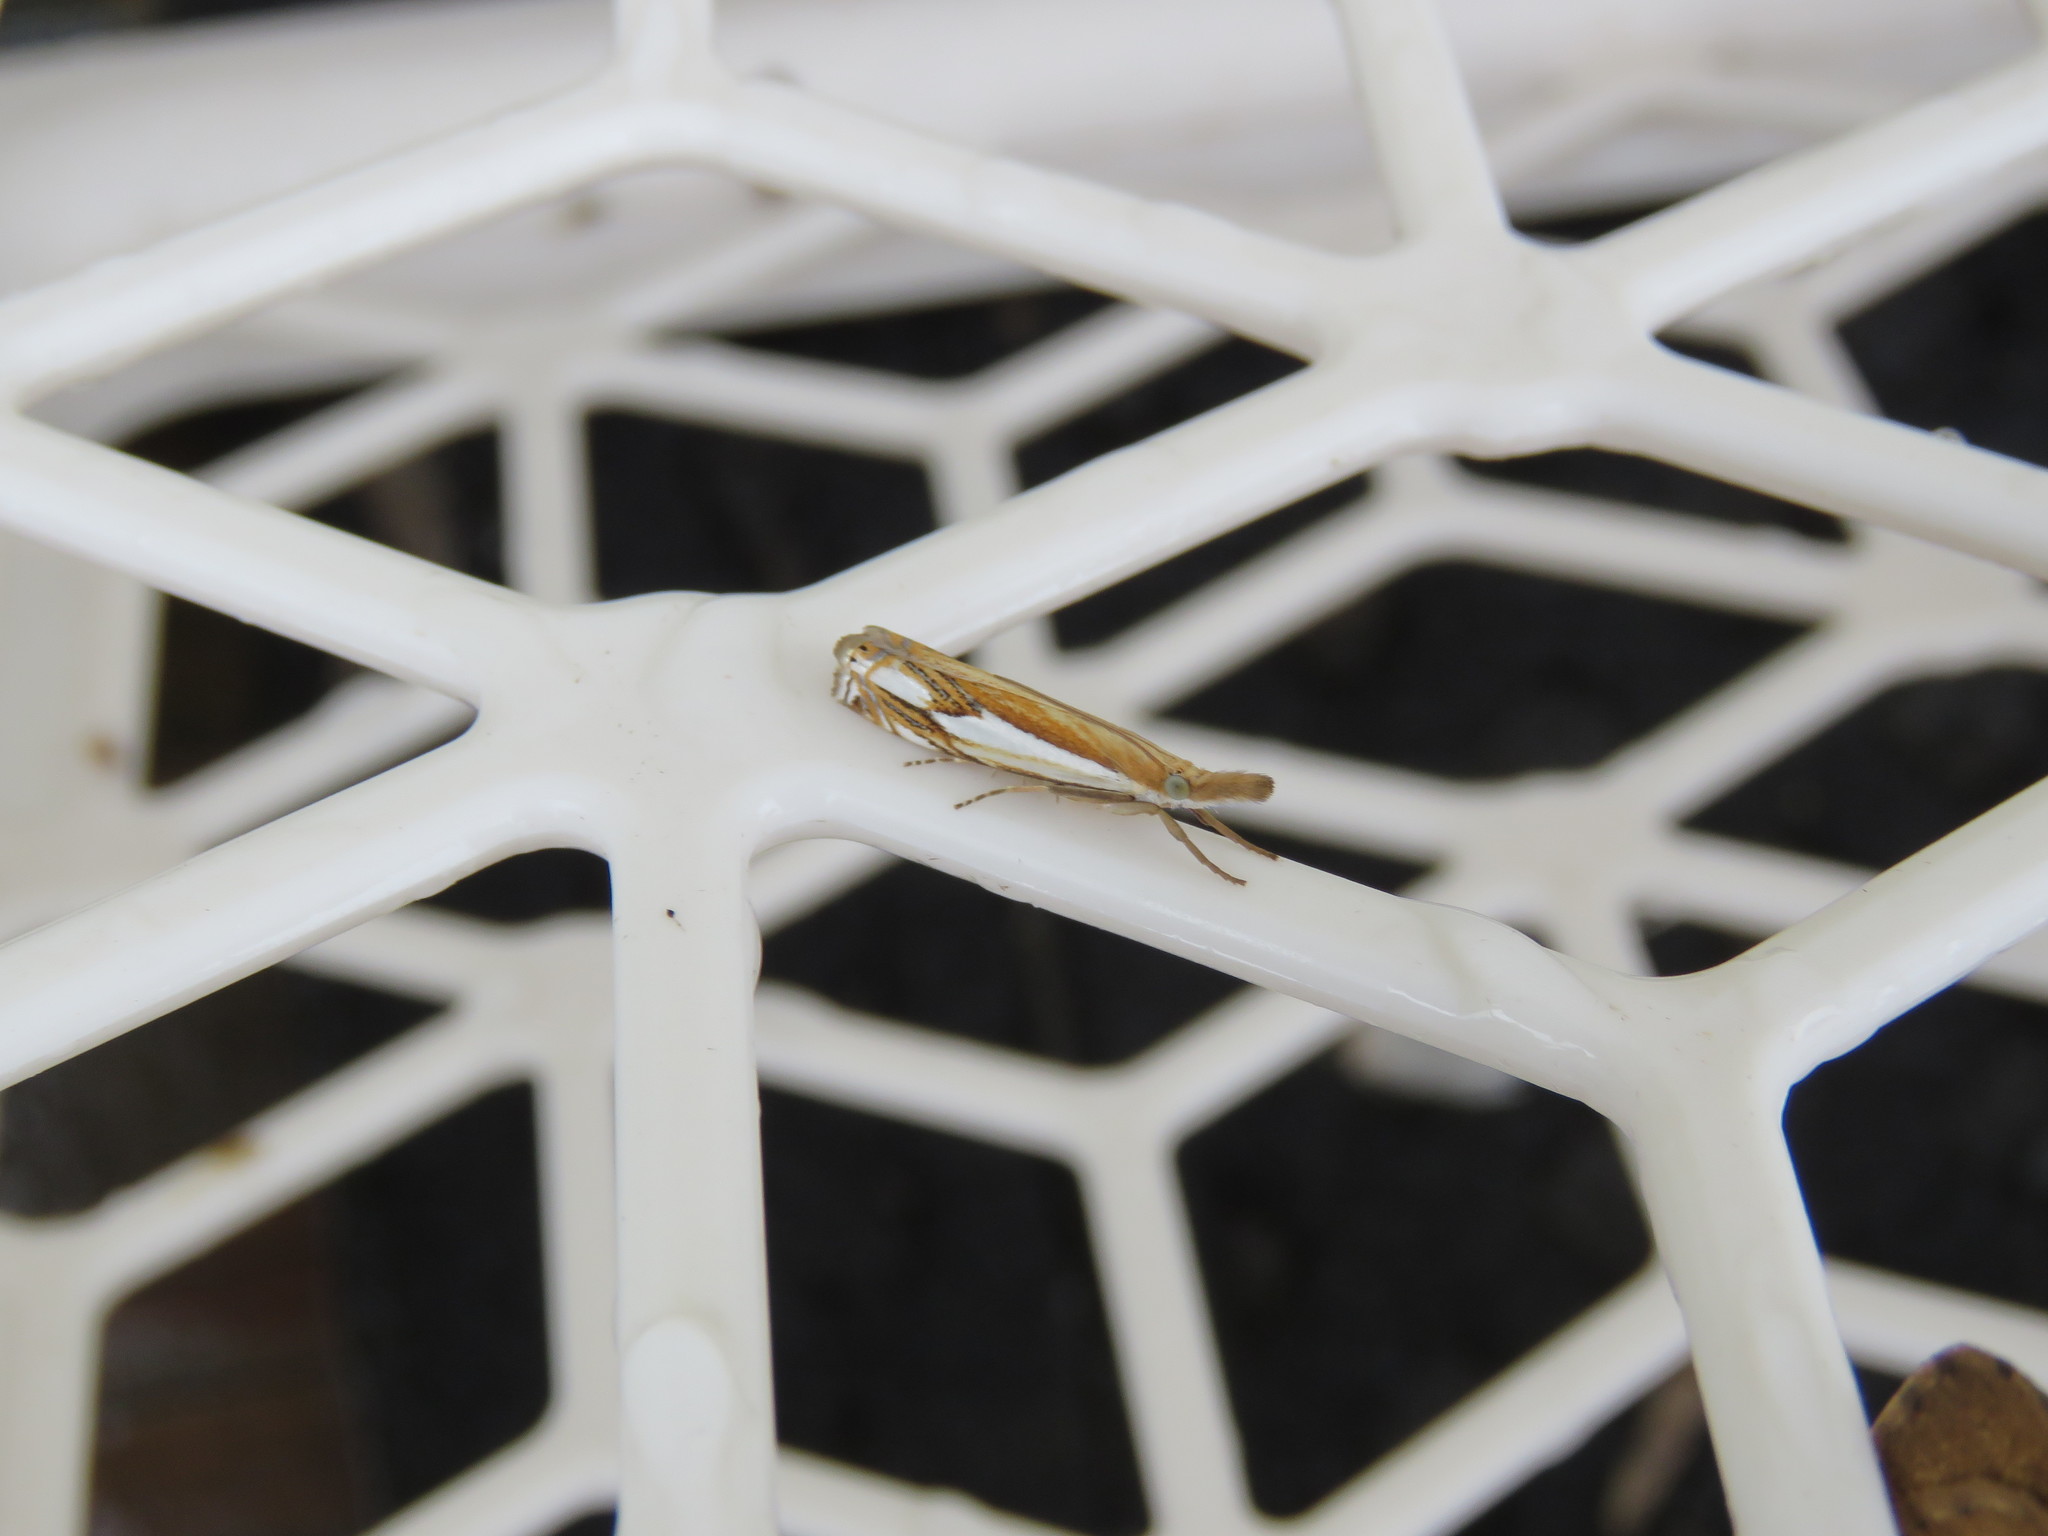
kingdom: Animalia
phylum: Arthropoda
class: Insecta
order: Lepidoptera
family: Crambidae
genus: Crambus
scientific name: Crambus agitatellus
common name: Double-banded grass-veneer
